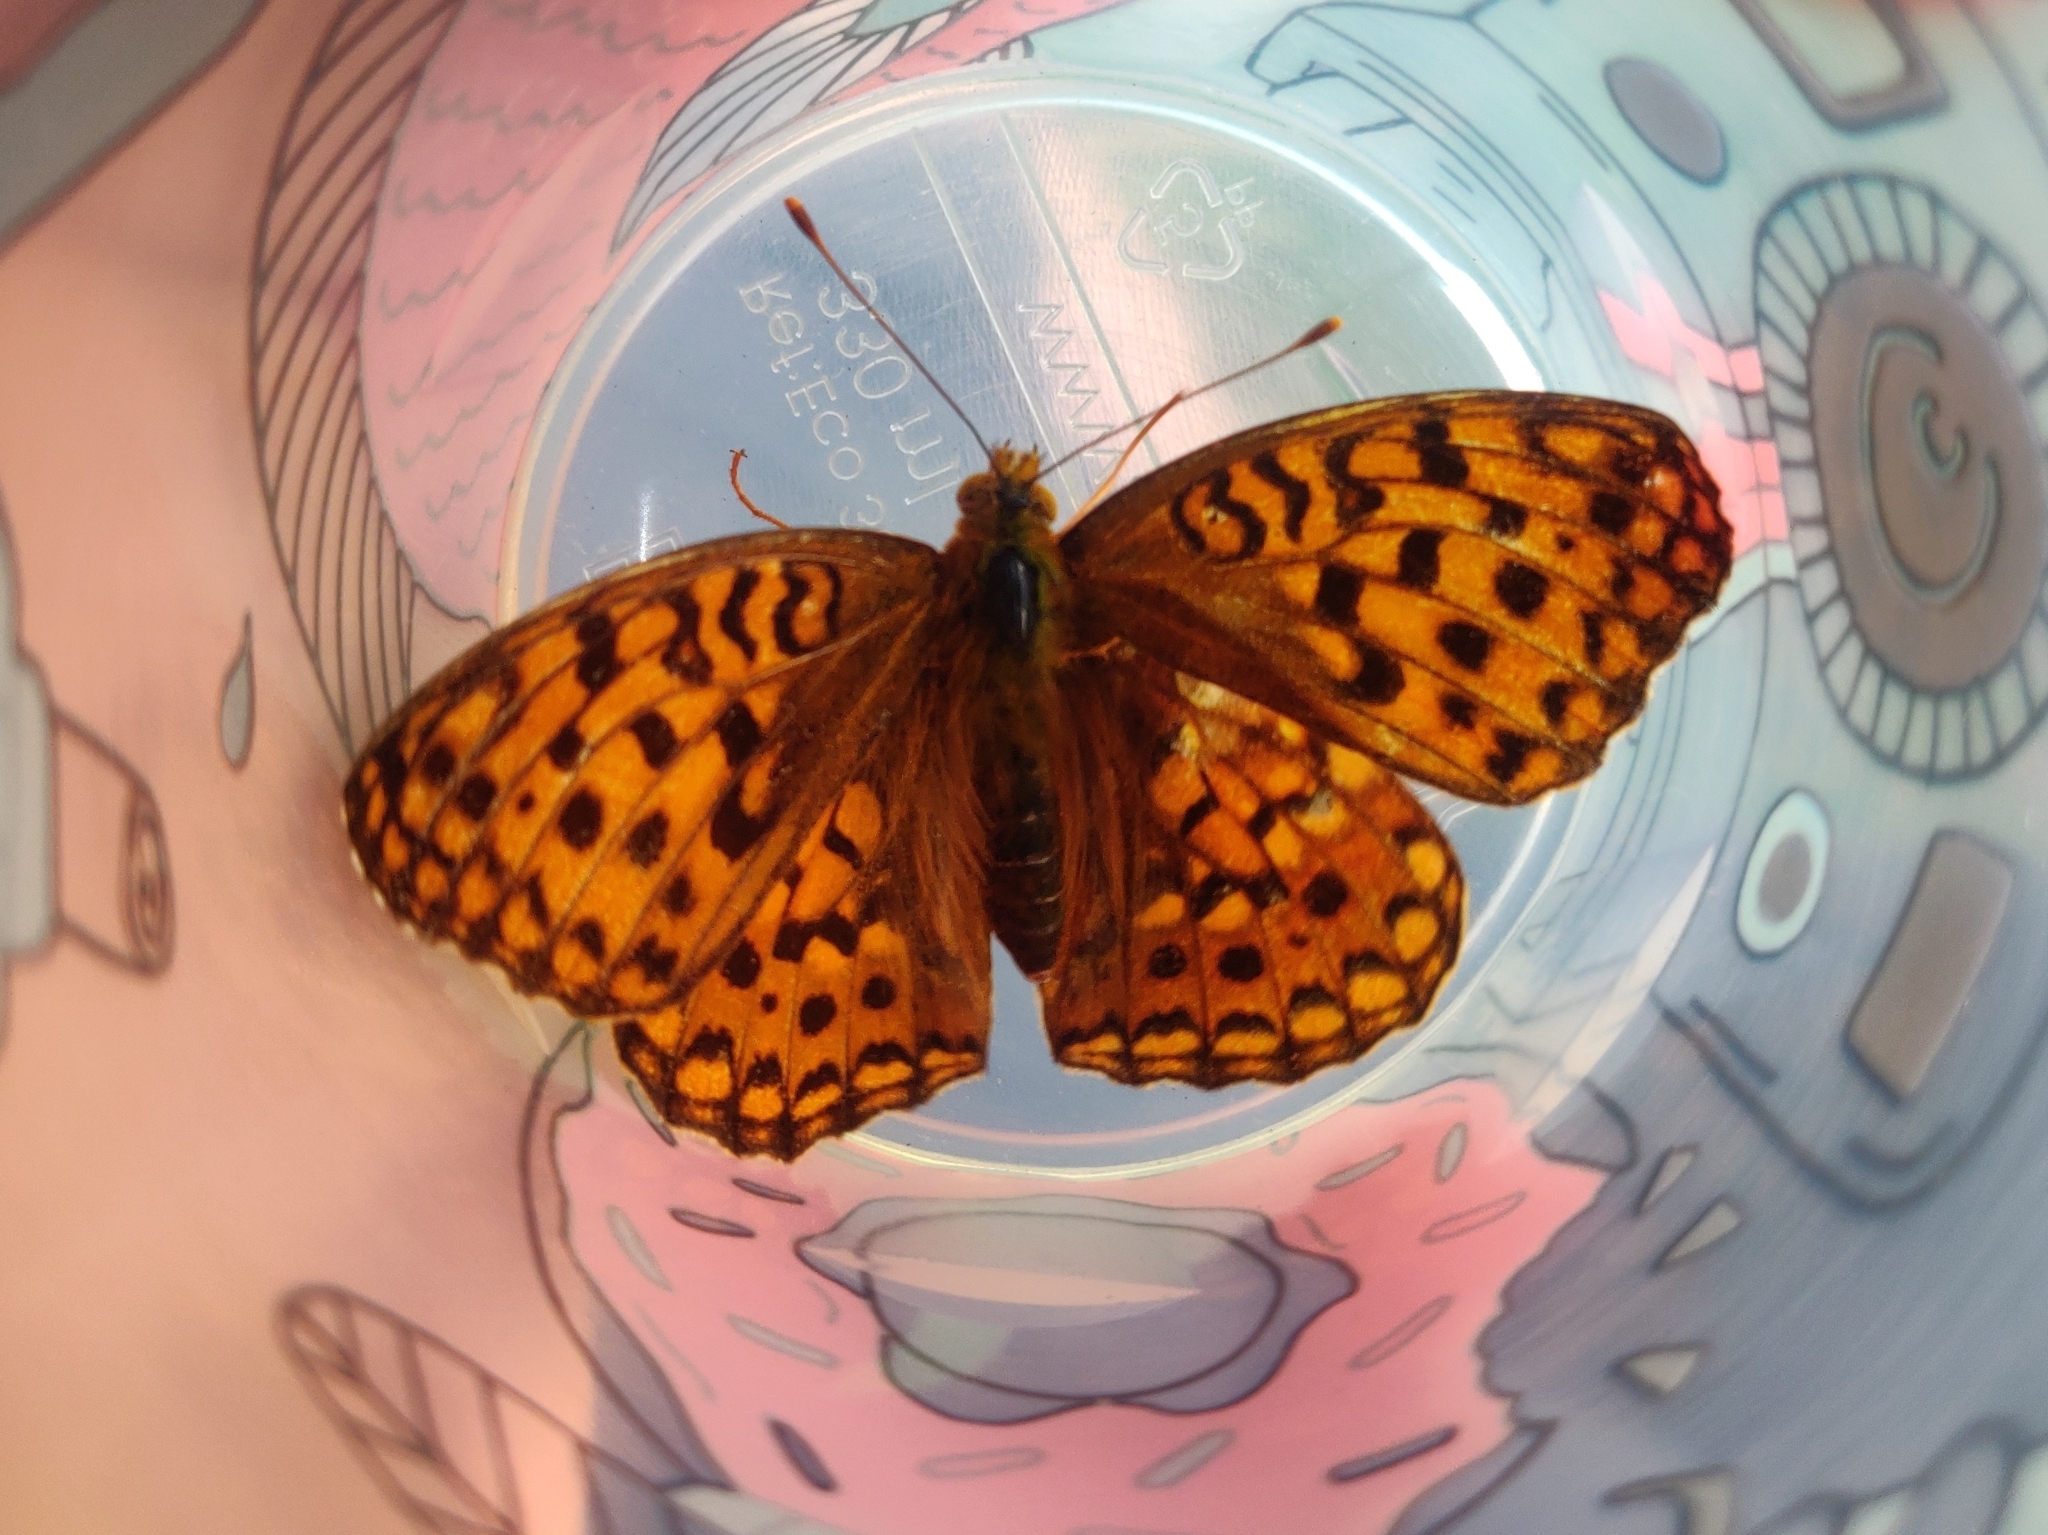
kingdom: Animalia
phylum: Arthropoda
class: Insecta
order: Lepidoptera
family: Nymphalidae
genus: Fabriciana
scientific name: Fabriciana adippe
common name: High brown fritillary
